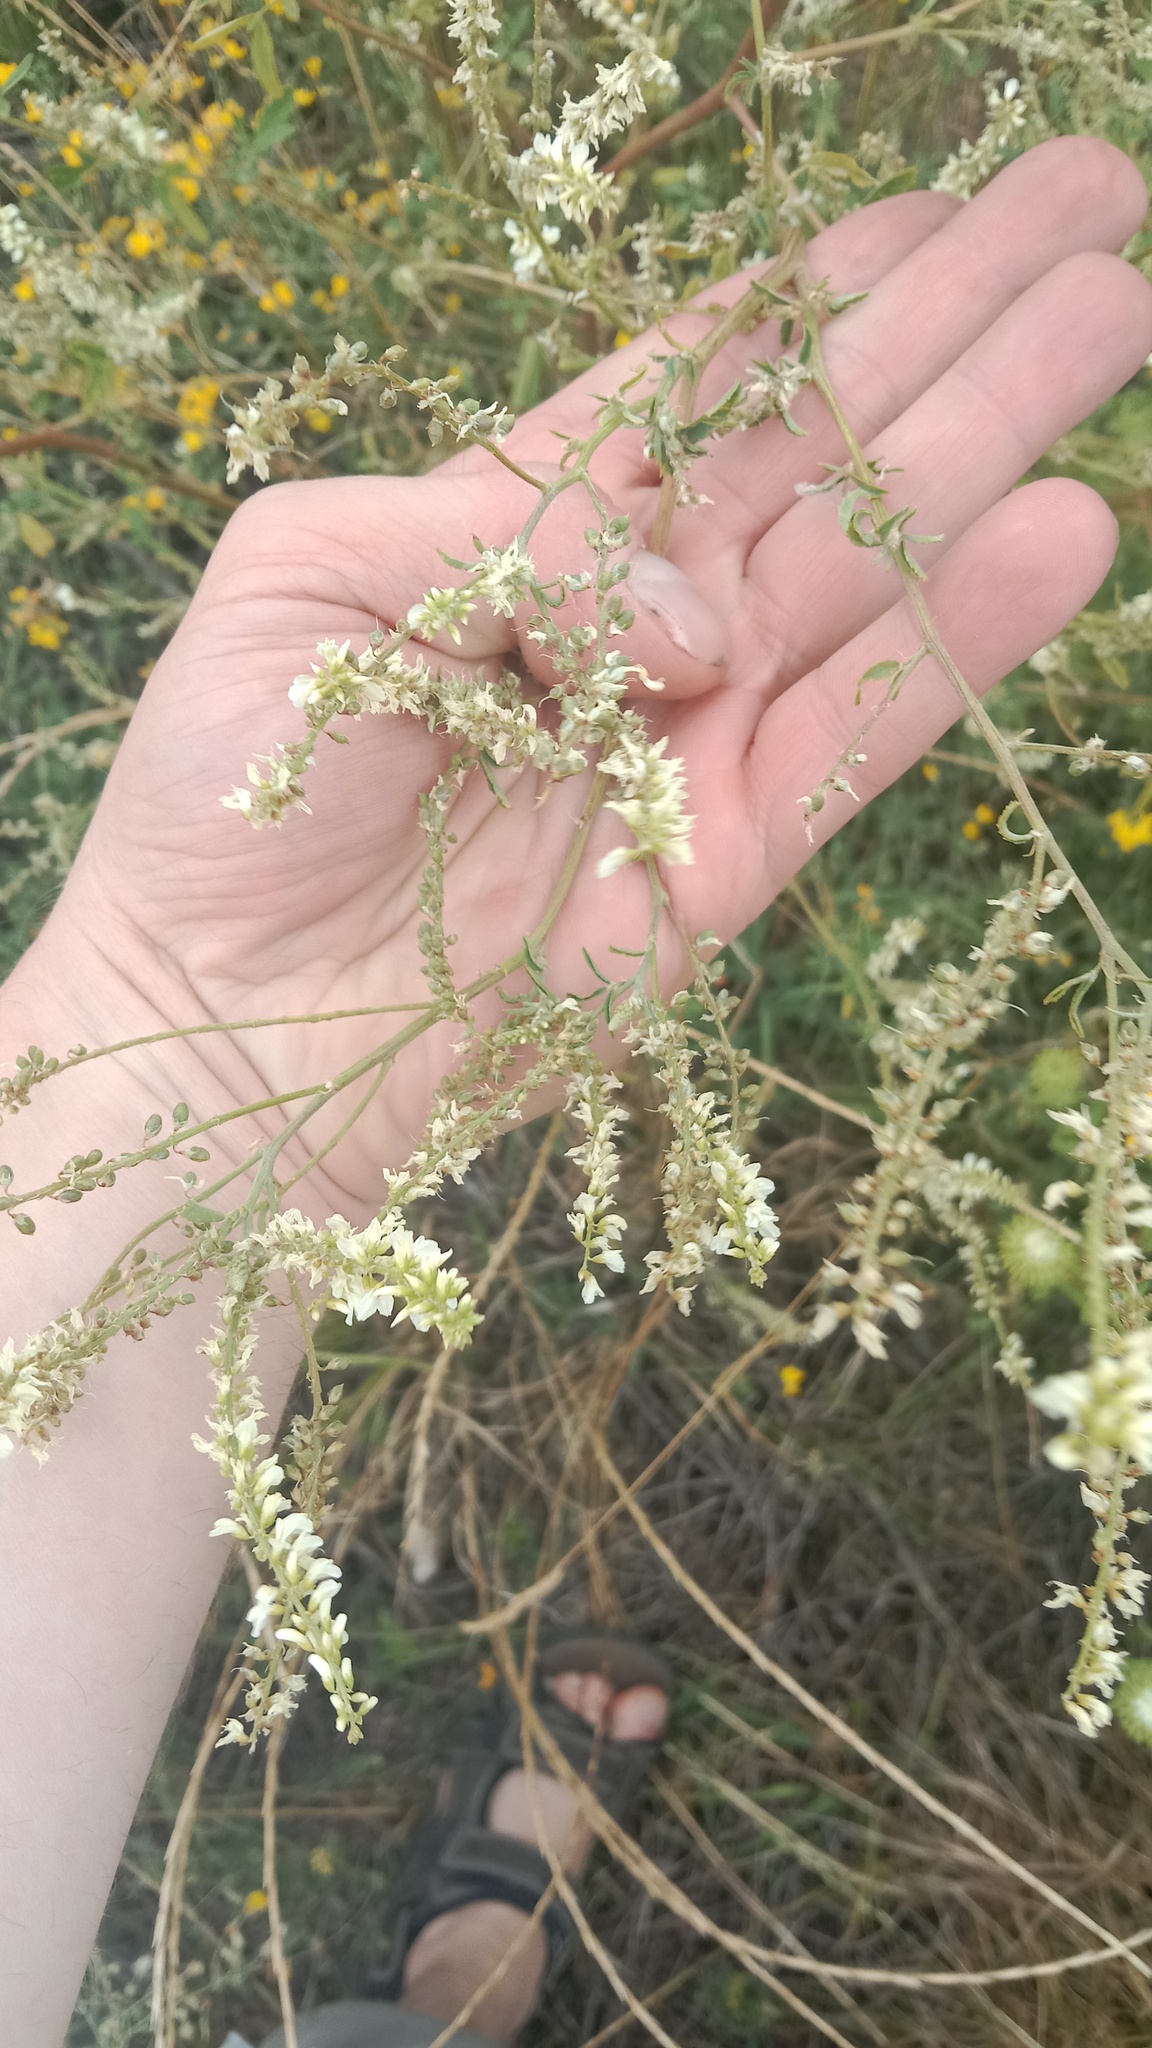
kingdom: Plantae
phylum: Tracheophyta
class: Magnoliopsida
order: Fabales
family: Fabaceae
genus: Melilotus
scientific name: Melilotus albus
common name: White melilot
